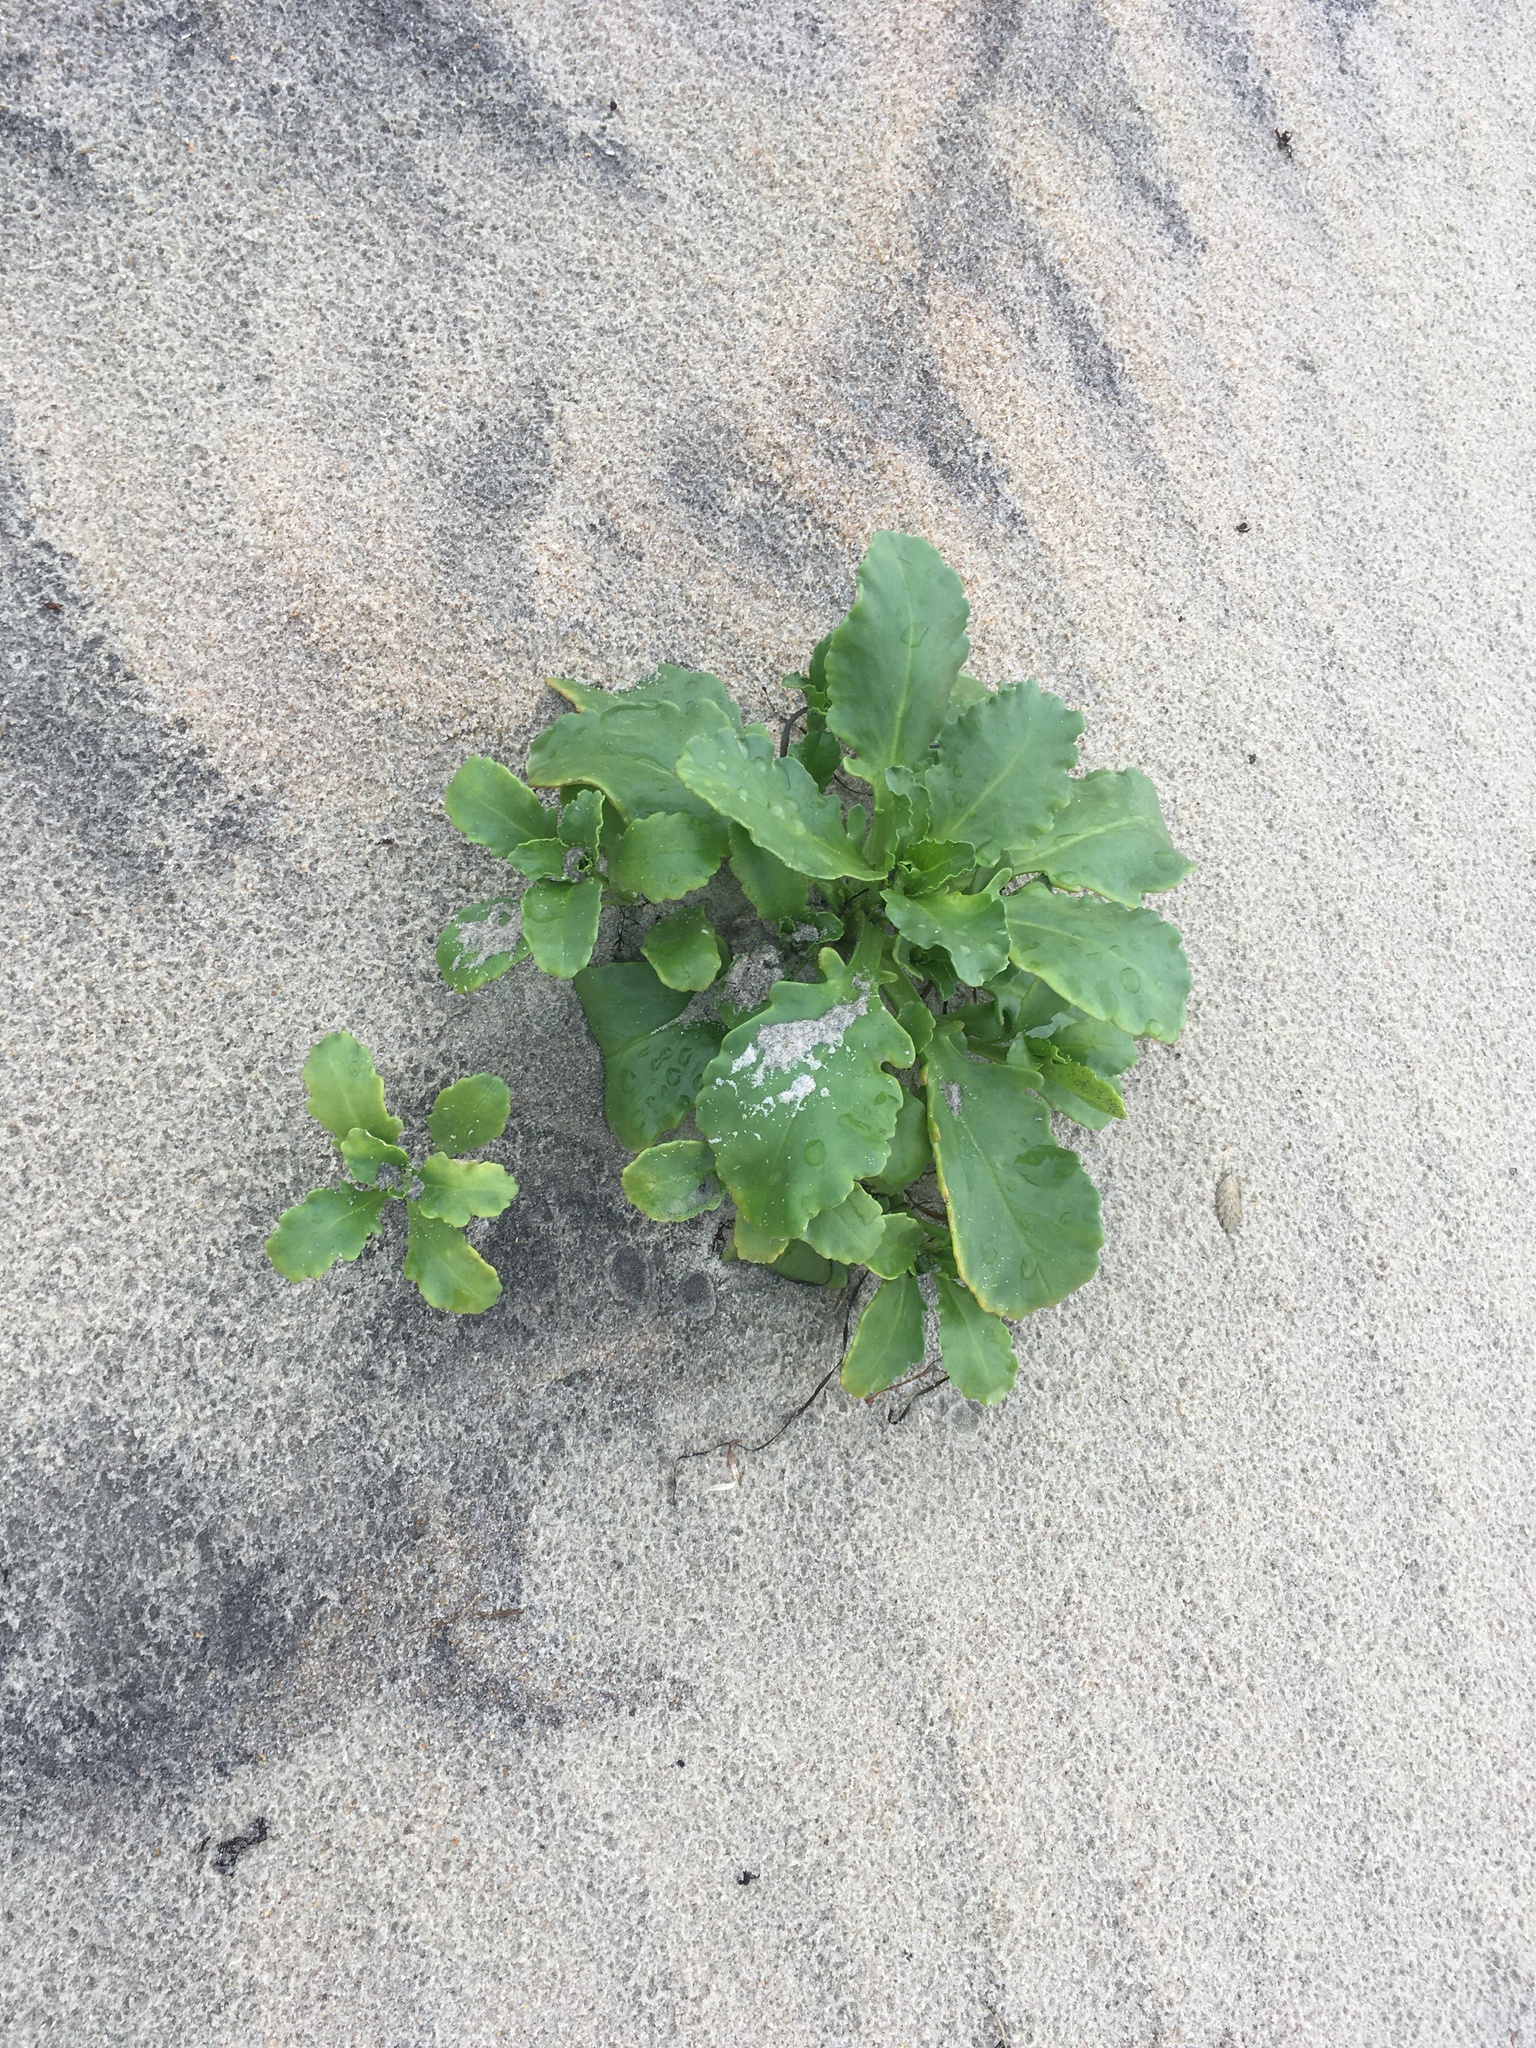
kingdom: Plantae
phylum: Tracheophyta
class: Magnoliopsida
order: Brassicales
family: Brassicaceae
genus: Cakile
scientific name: Cakile edentula
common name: American sea rocket
